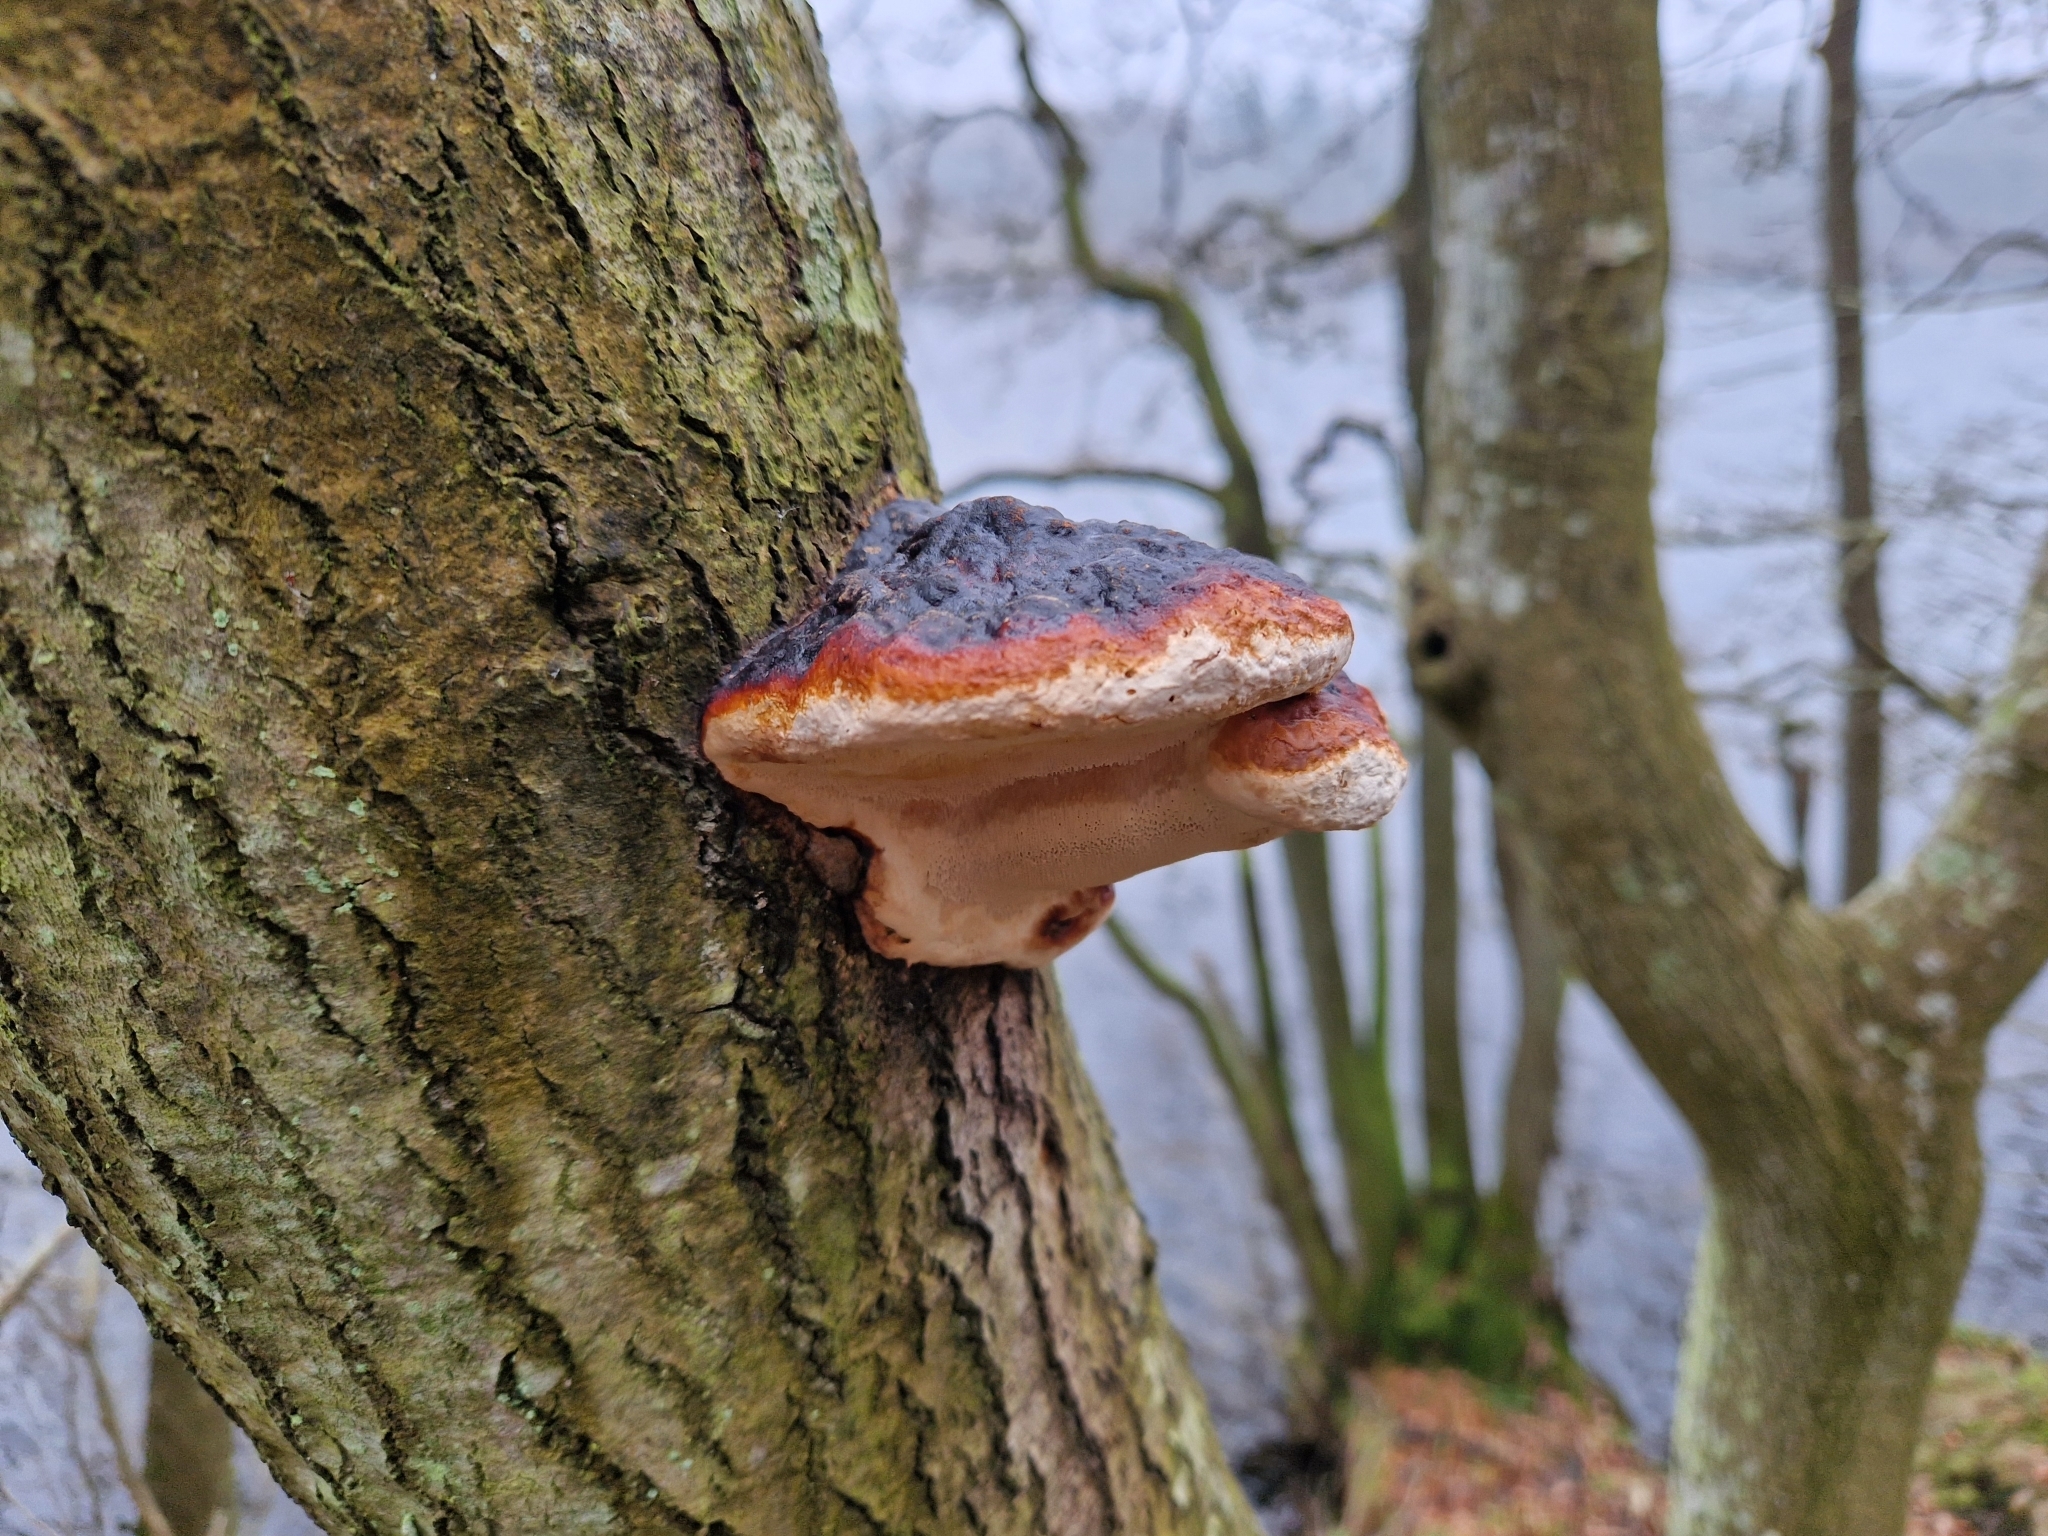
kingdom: Fungi
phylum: Basidiomycota
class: Agaricomycetes
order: Polyporales
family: Fomitopsidaceae
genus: Fomitopsis
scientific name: Fomitopsis pinicola
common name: Red-belted bracket
